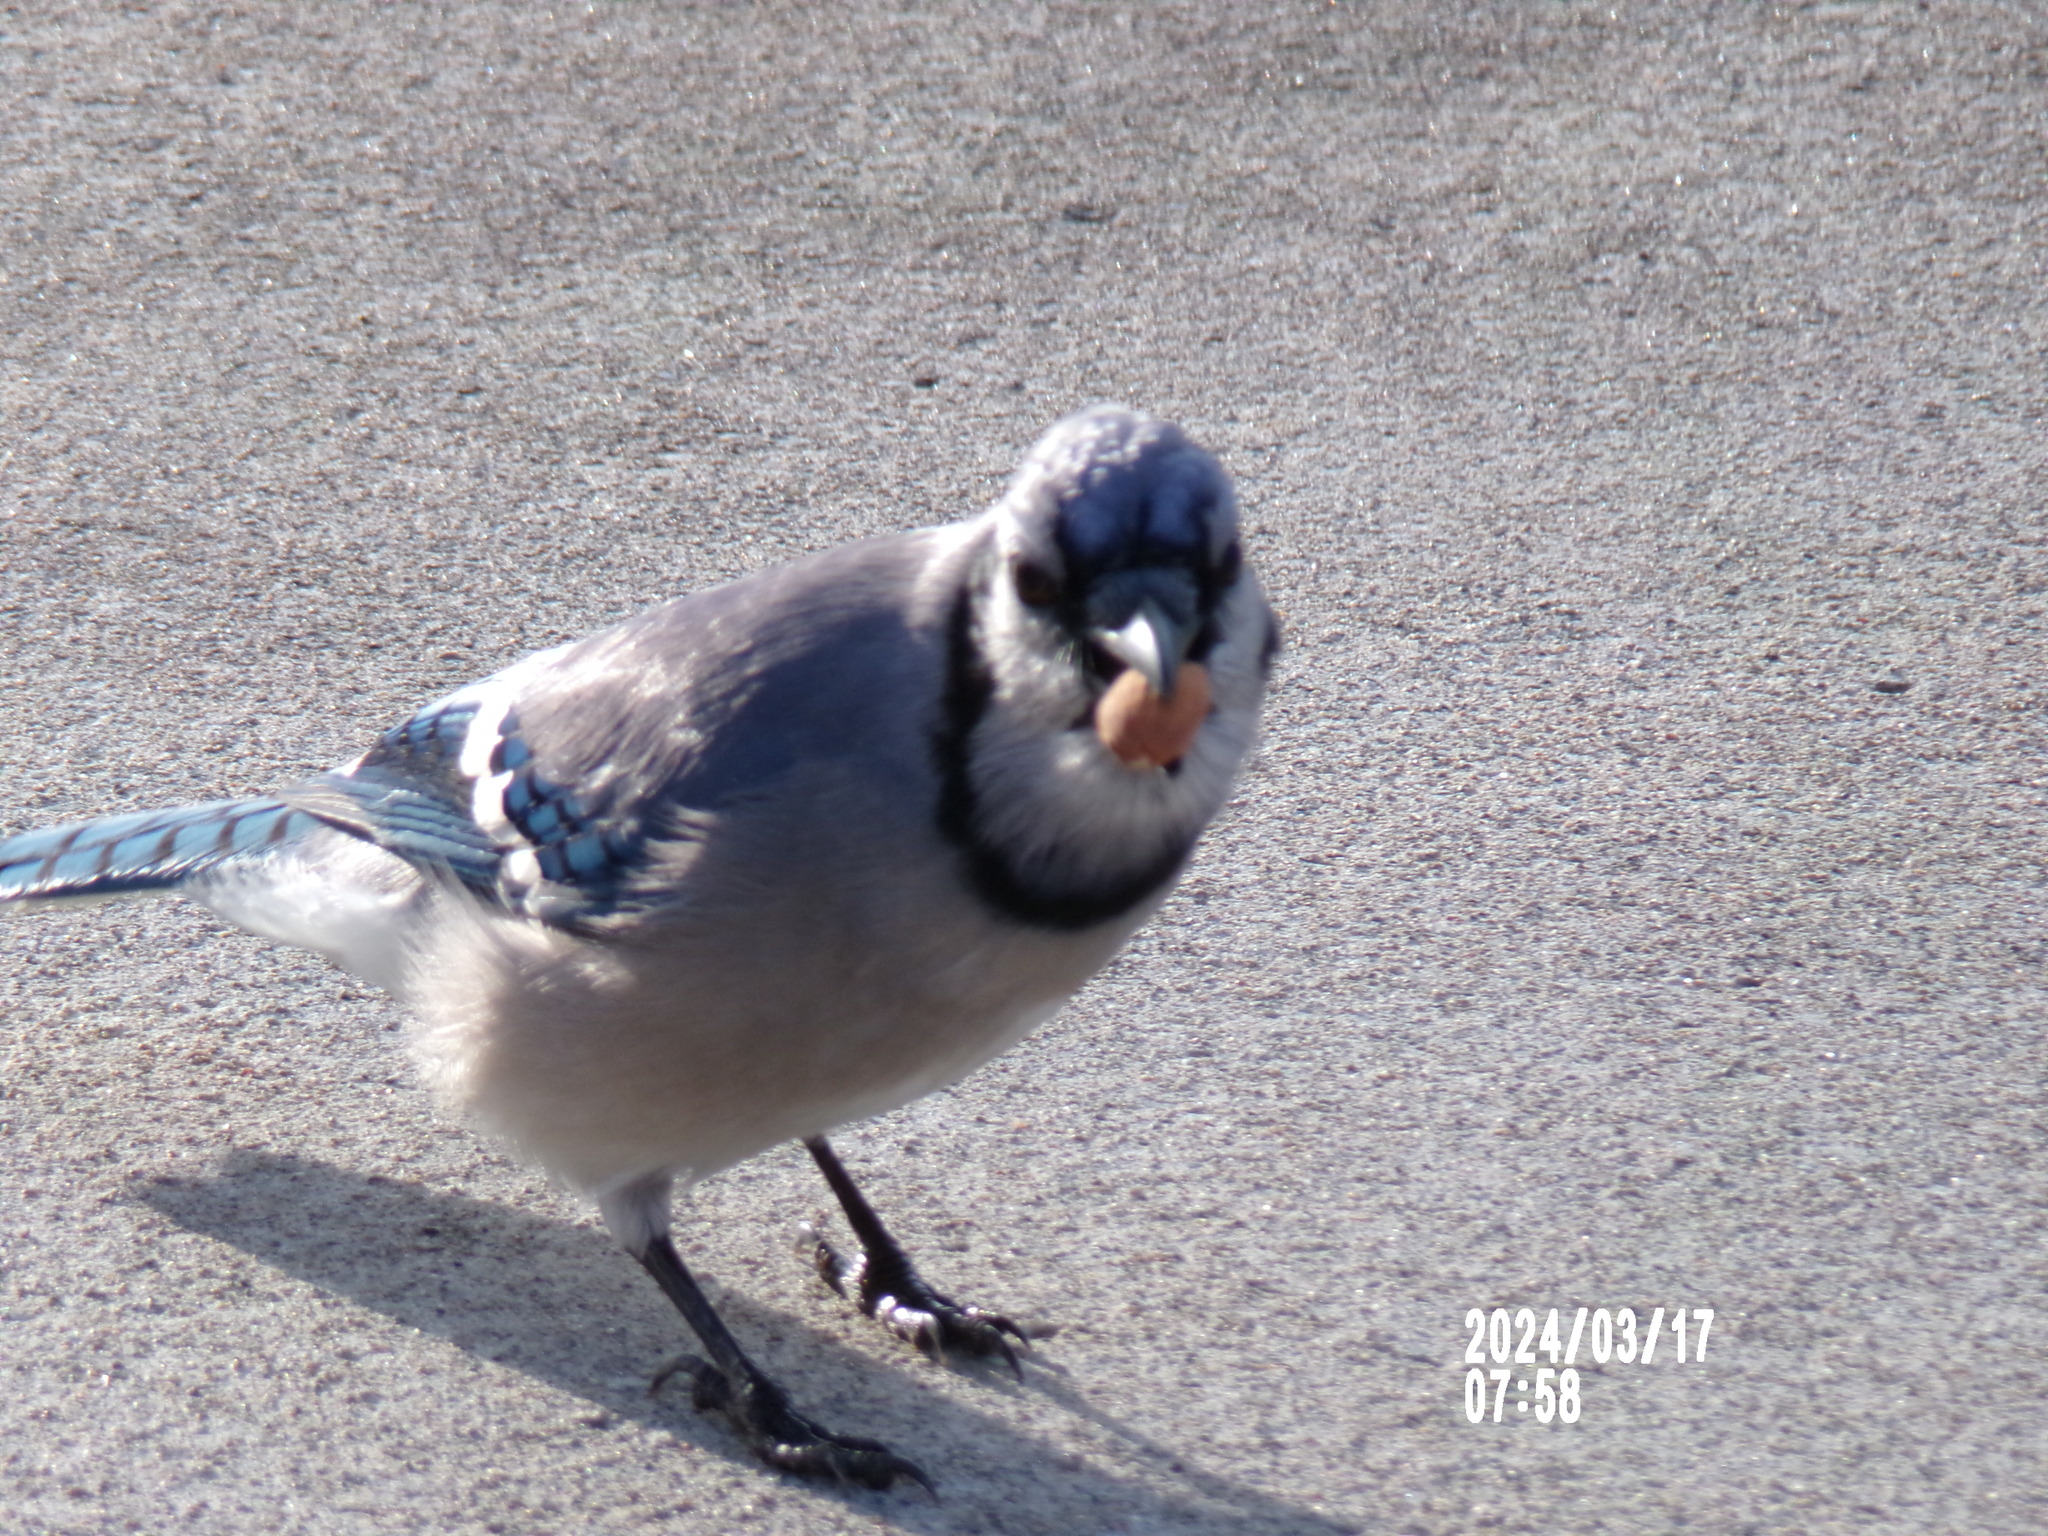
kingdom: Animalia
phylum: Chordata
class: Aves
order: Passeriformes
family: Corvidae
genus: Cyanocitta
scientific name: Cyanocitta cristata
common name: Blue jay
